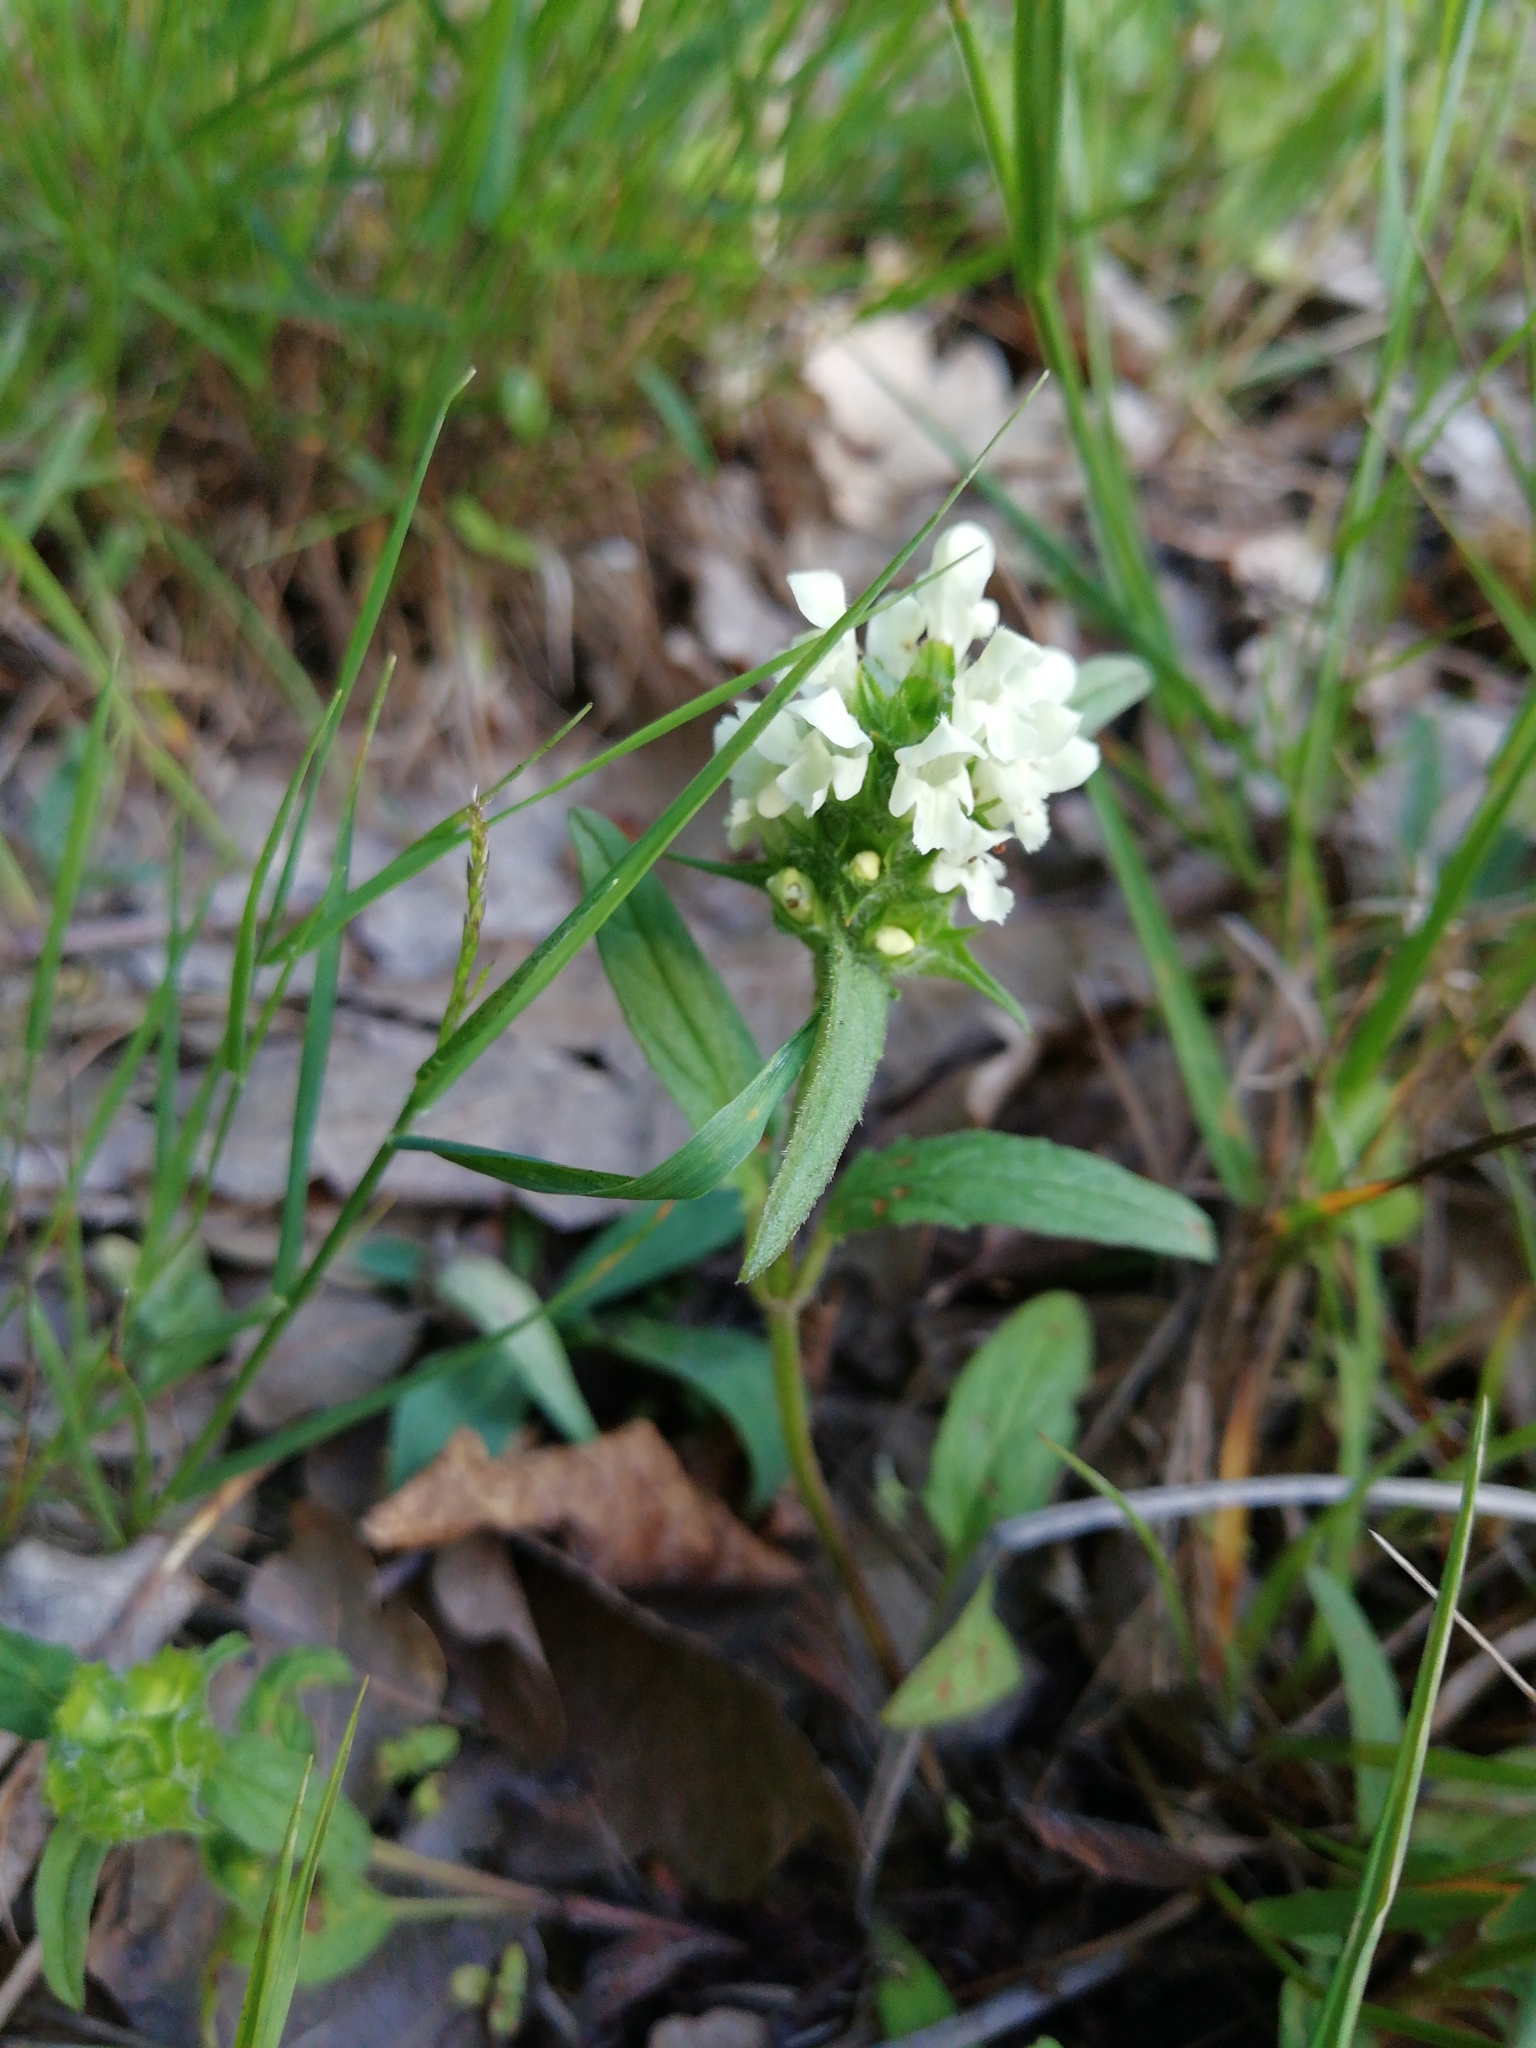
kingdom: Plantae
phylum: Tracheophyta
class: Magnoliopsida
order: Lamiales
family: Lamiaceae
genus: Prunella
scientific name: Prunella laciniata
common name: Cut-leaved selfheal
